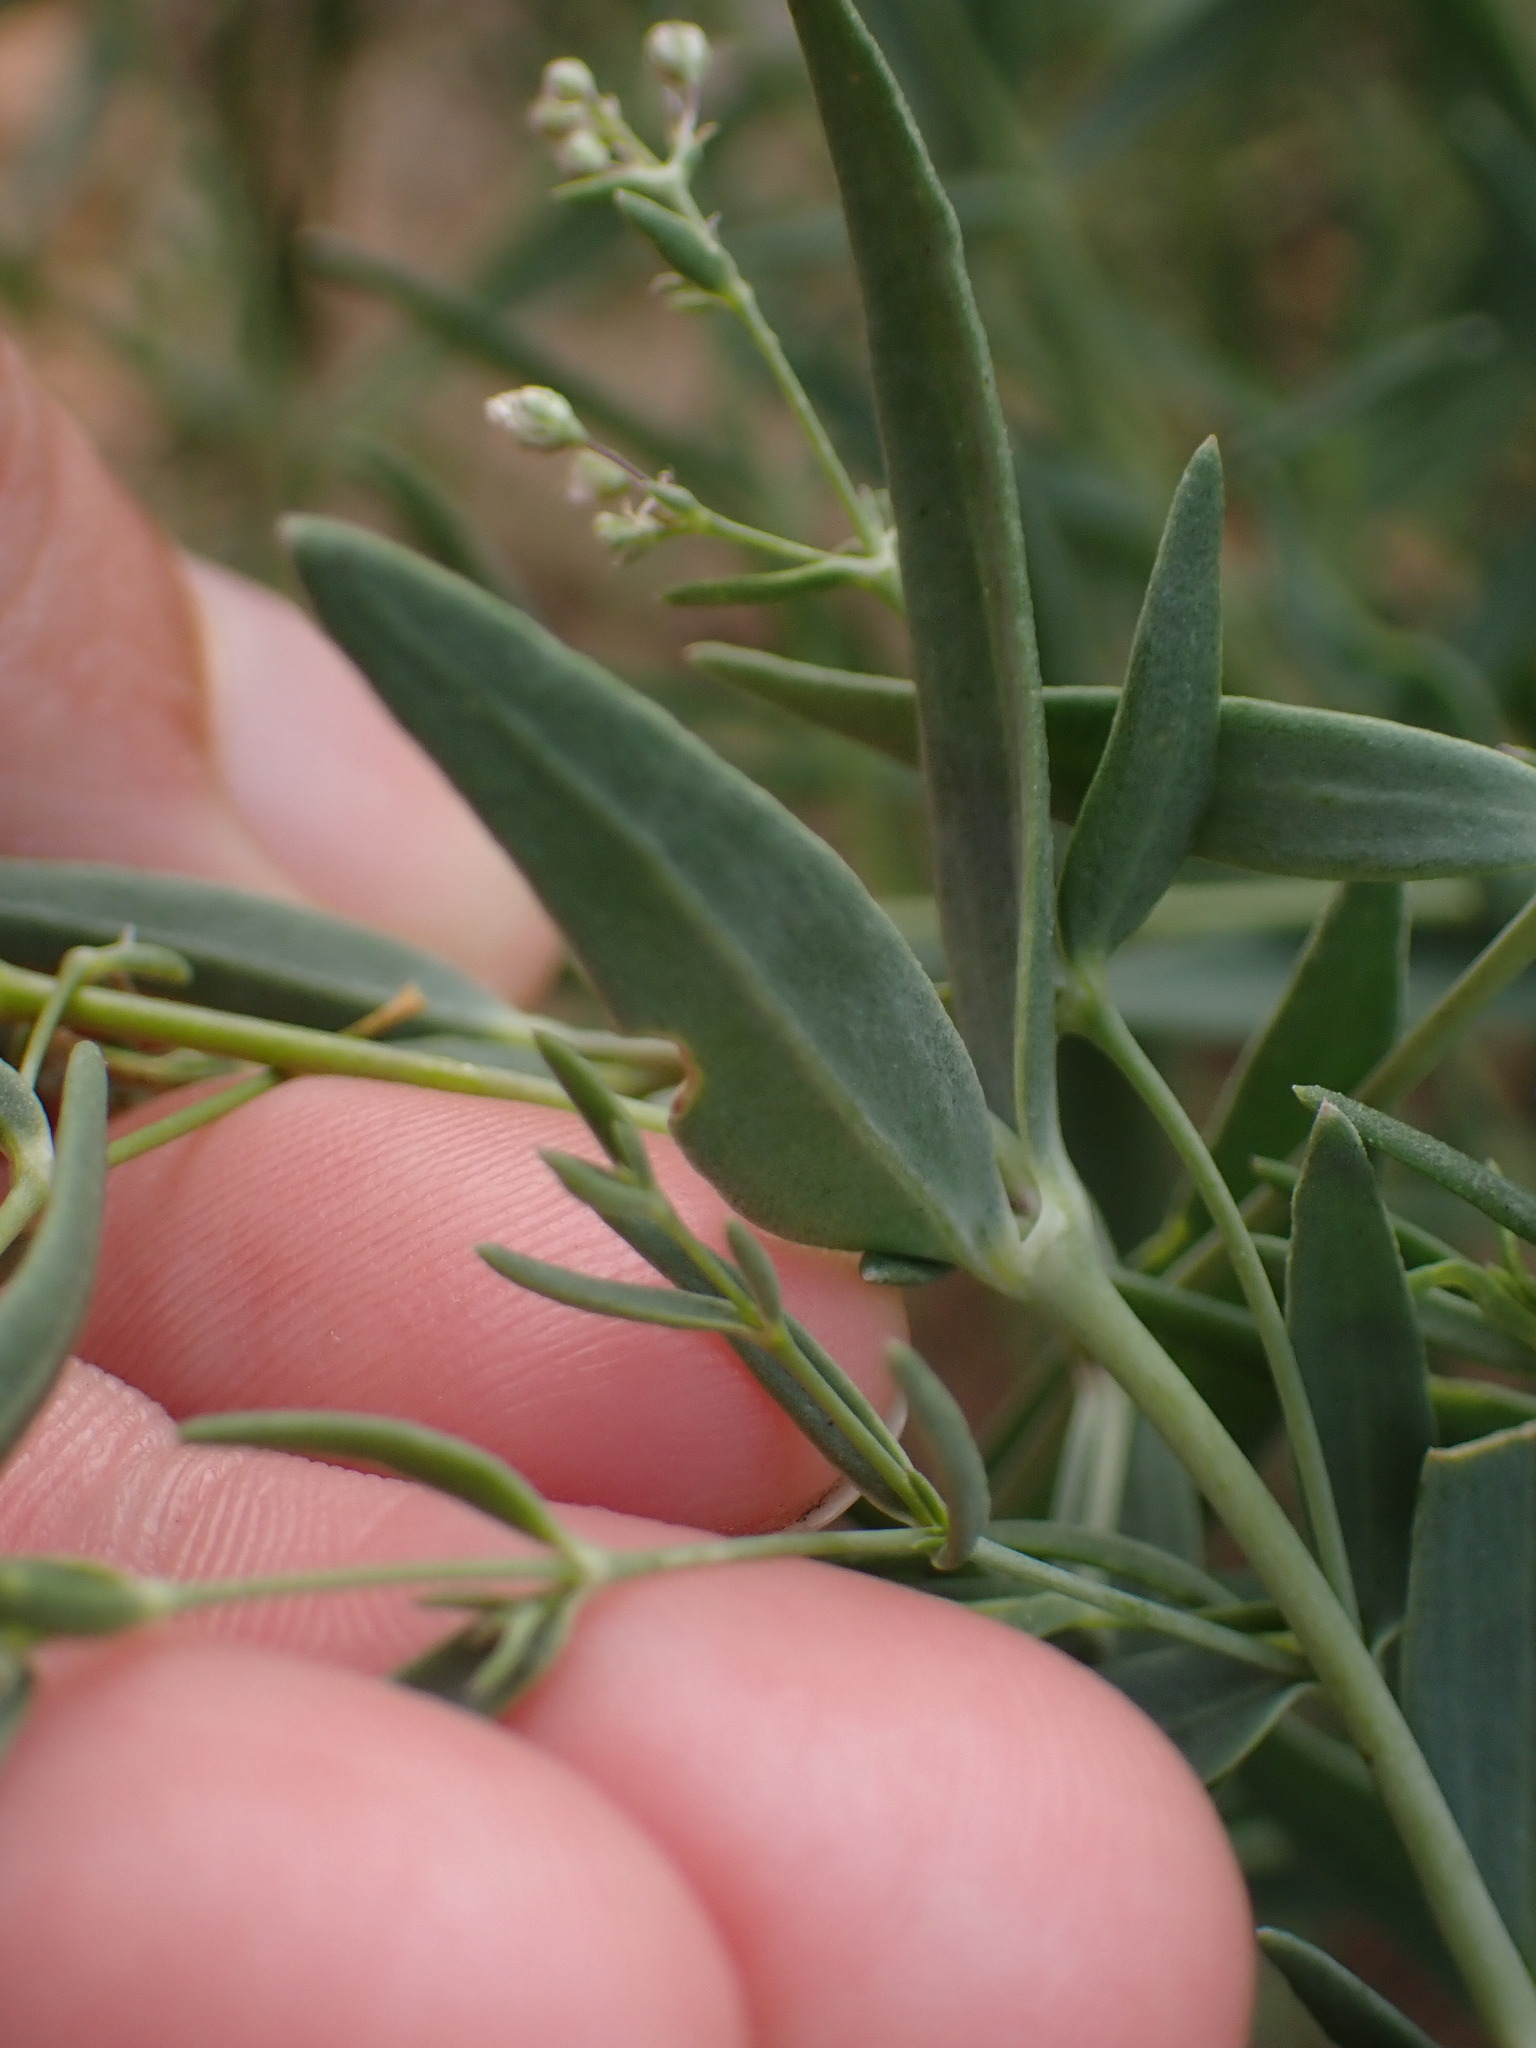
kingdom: Plantae
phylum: Tracheophyta
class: Magnoliopsida
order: Caryophyllales
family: Caryophyllaceae
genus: Gypsophila
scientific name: Gypsophila paniculata
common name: Baby's-breath
